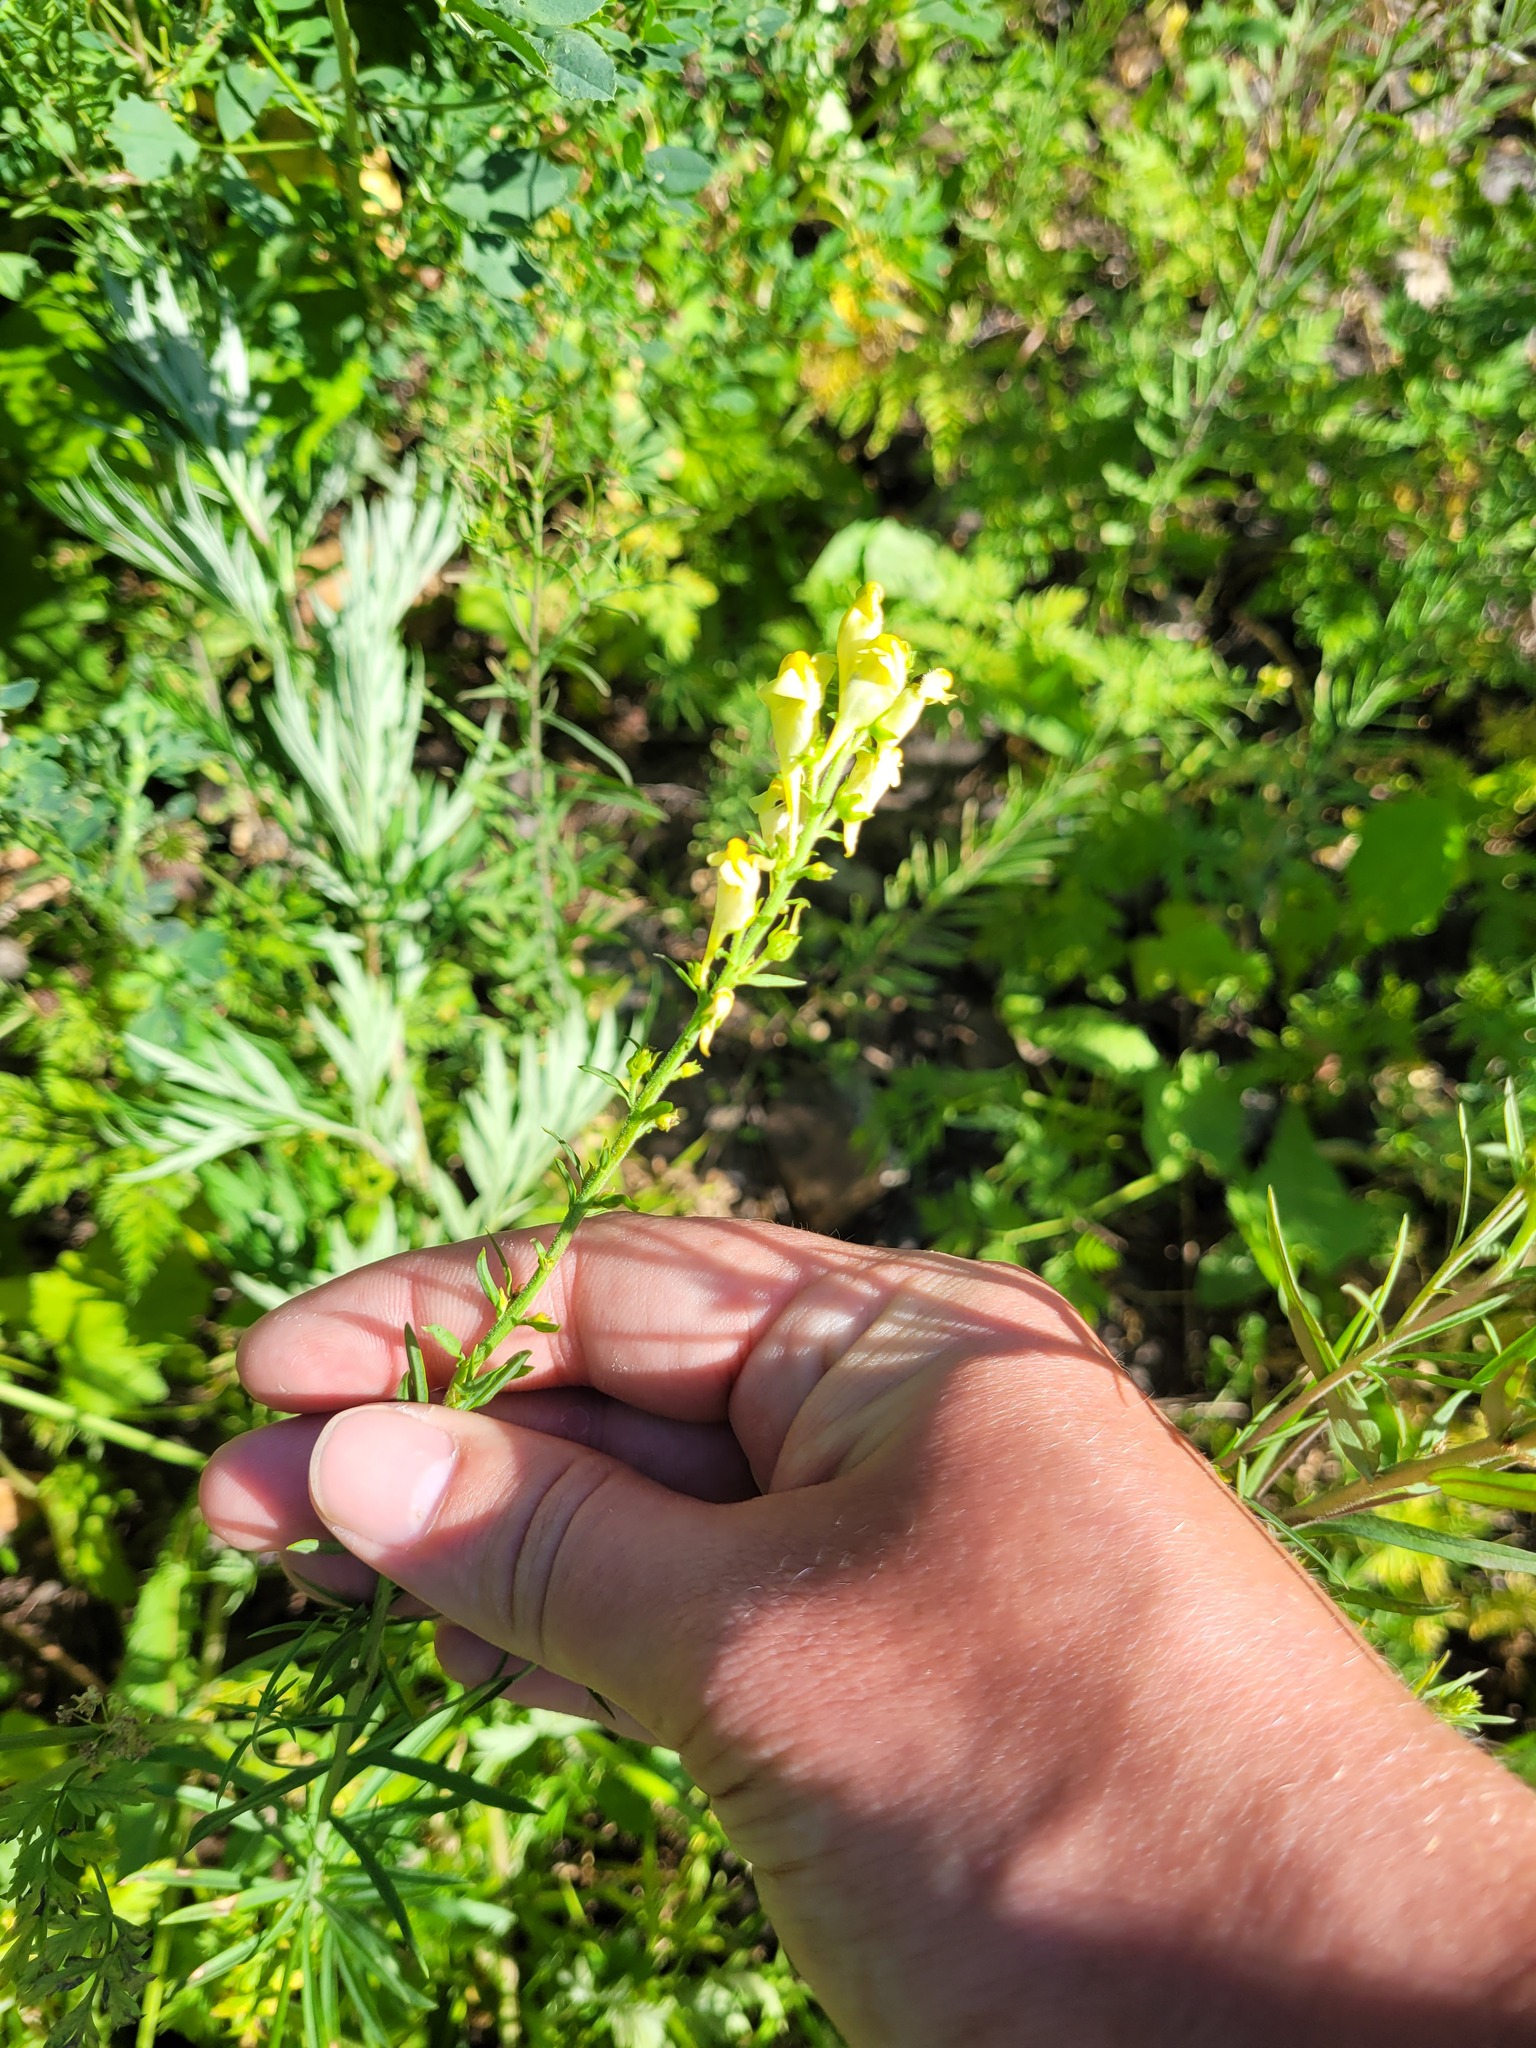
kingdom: Plantae
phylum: Tracheophyta
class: Magnoliopsida
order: Lamiales
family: Plantaginaceae
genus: Linaria
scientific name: Linaria vulgaris
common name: Butter and eggs
